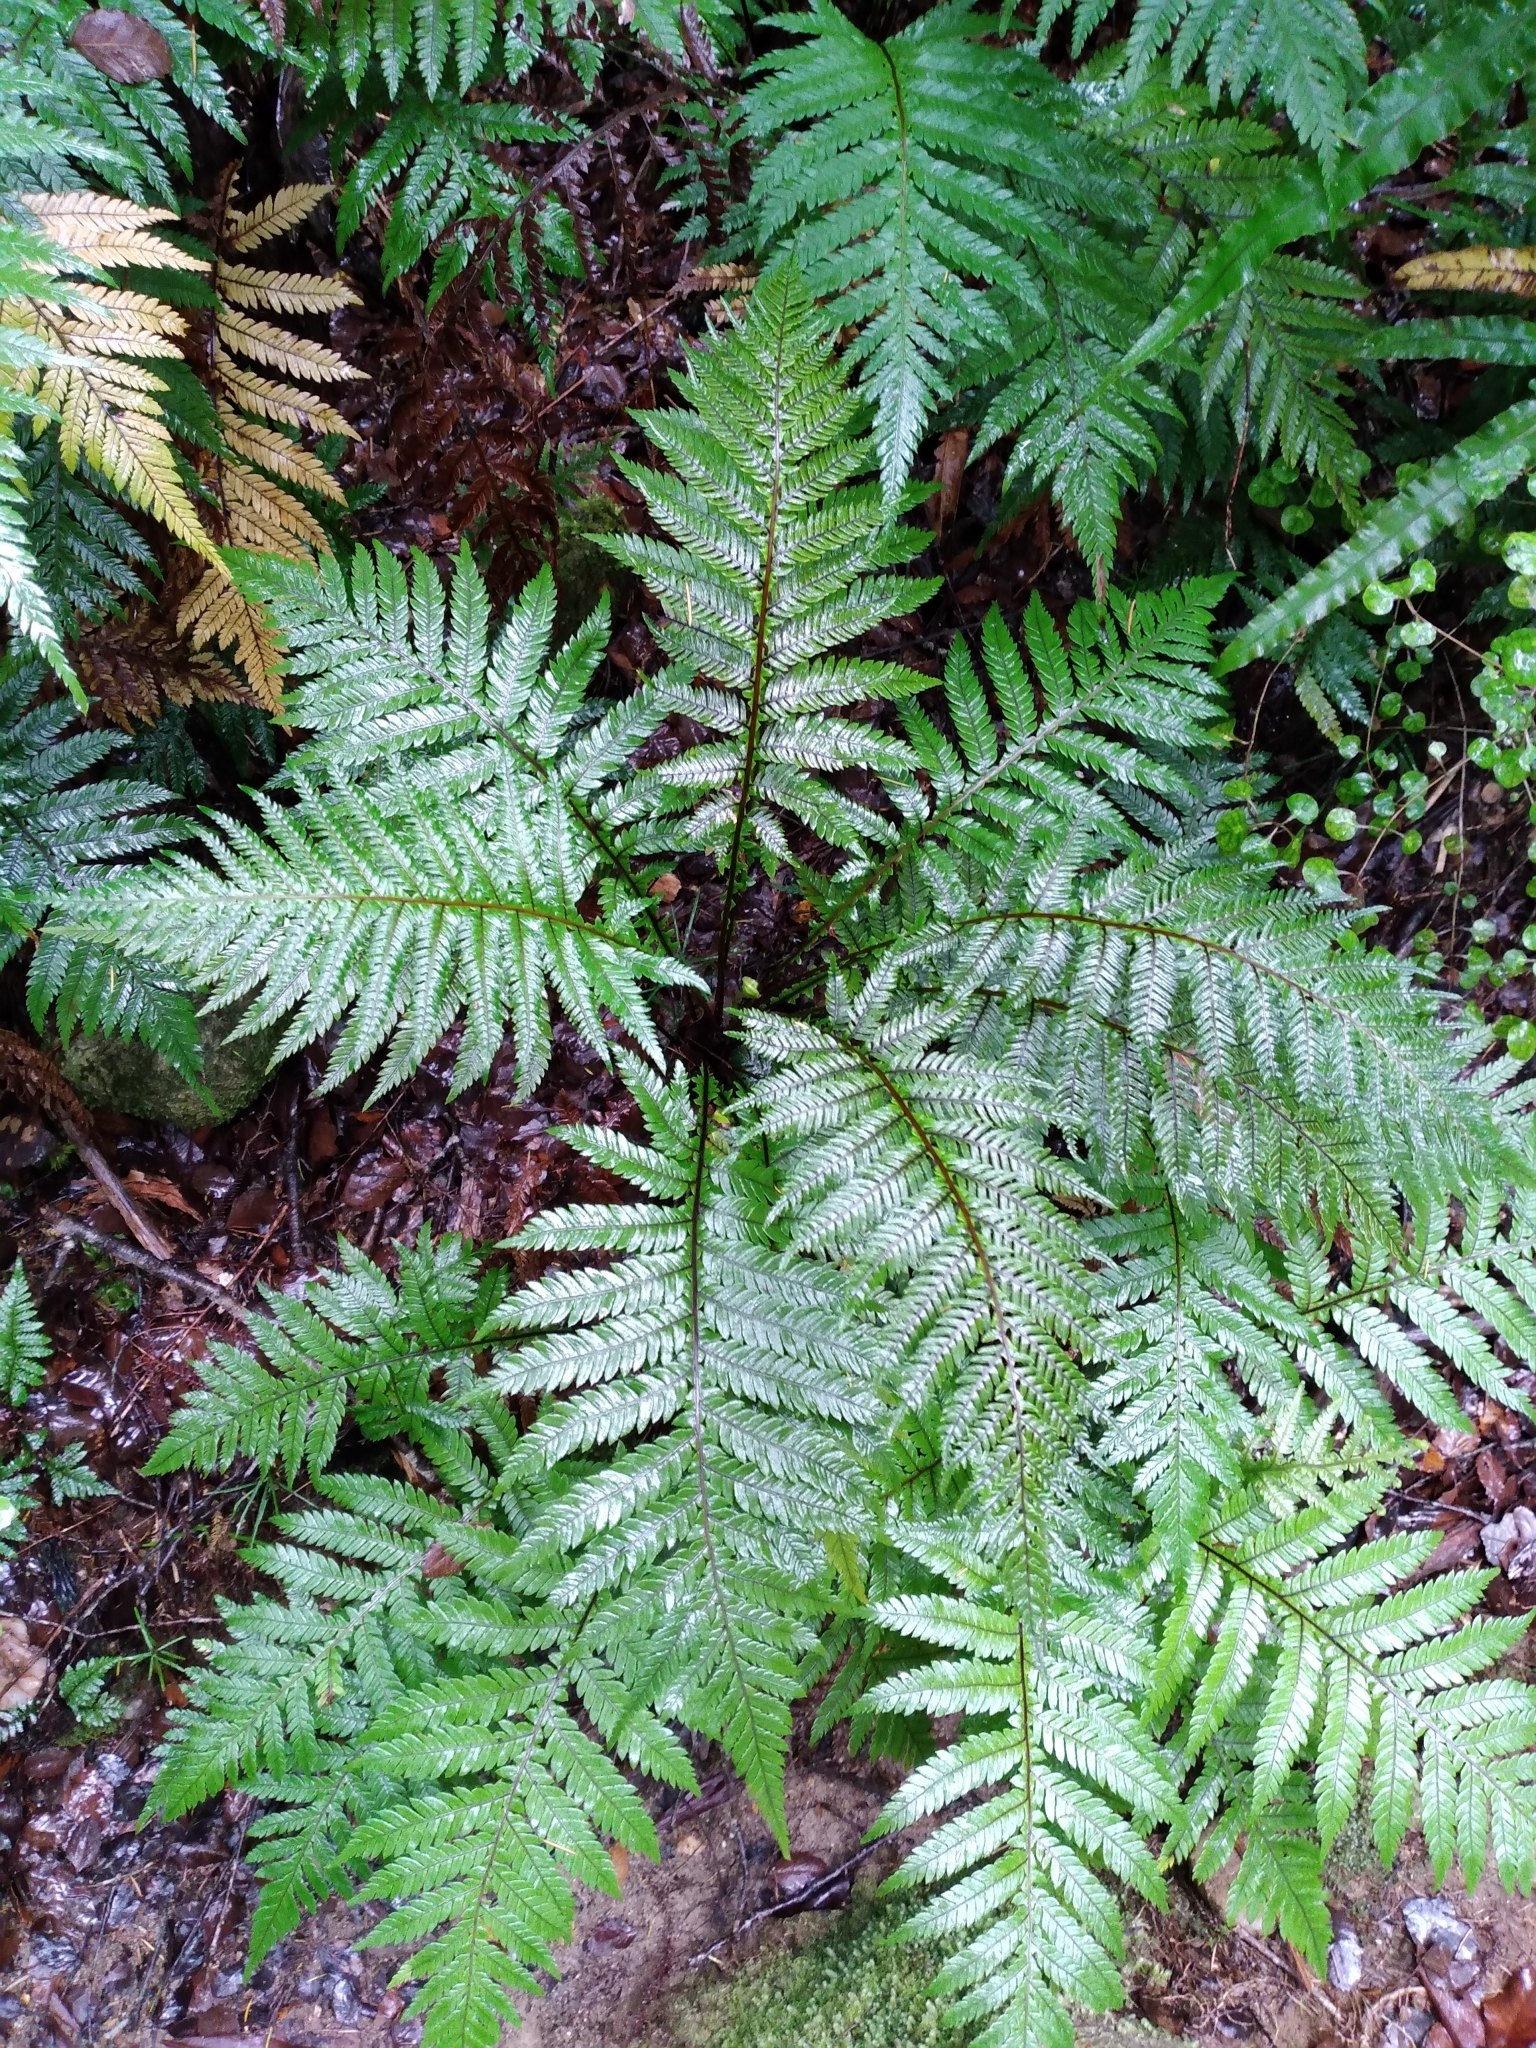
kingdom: Plantae
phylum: Tracheophyta
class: Polypodiopsida
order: Polypodiales
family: Blechnaceae
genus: Diploblechnum
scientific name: Diploblechnum fraseri
